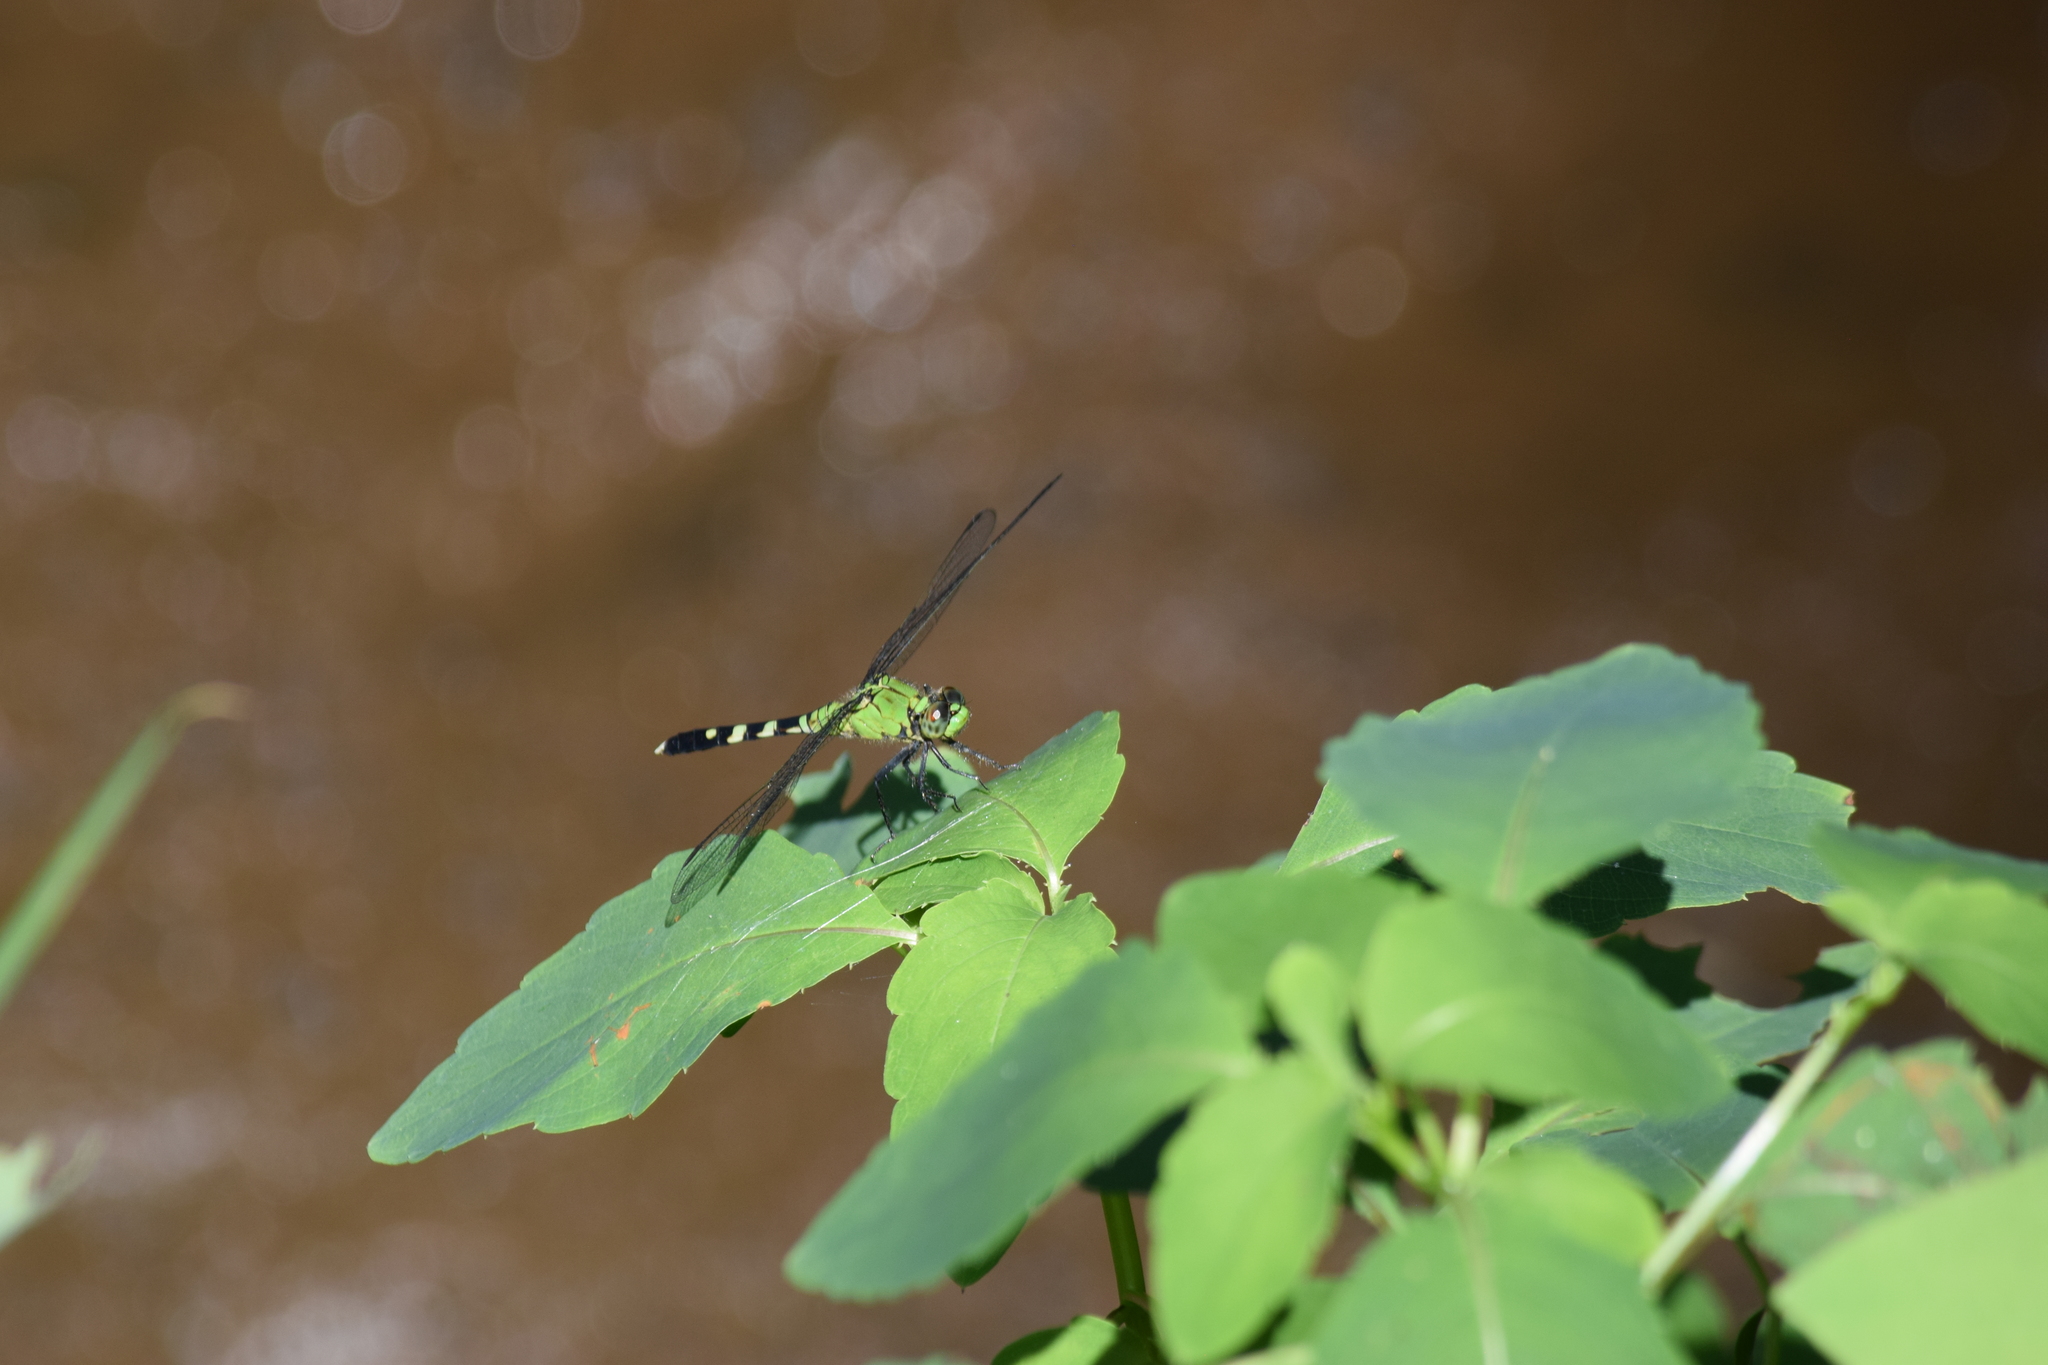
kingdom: Animalia
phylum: Arthropoda
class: Insecta
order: Odonata
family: Libellulidae
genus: Erythemis
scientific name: Erythemis simplicicollis
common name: Eastern pondhawk
